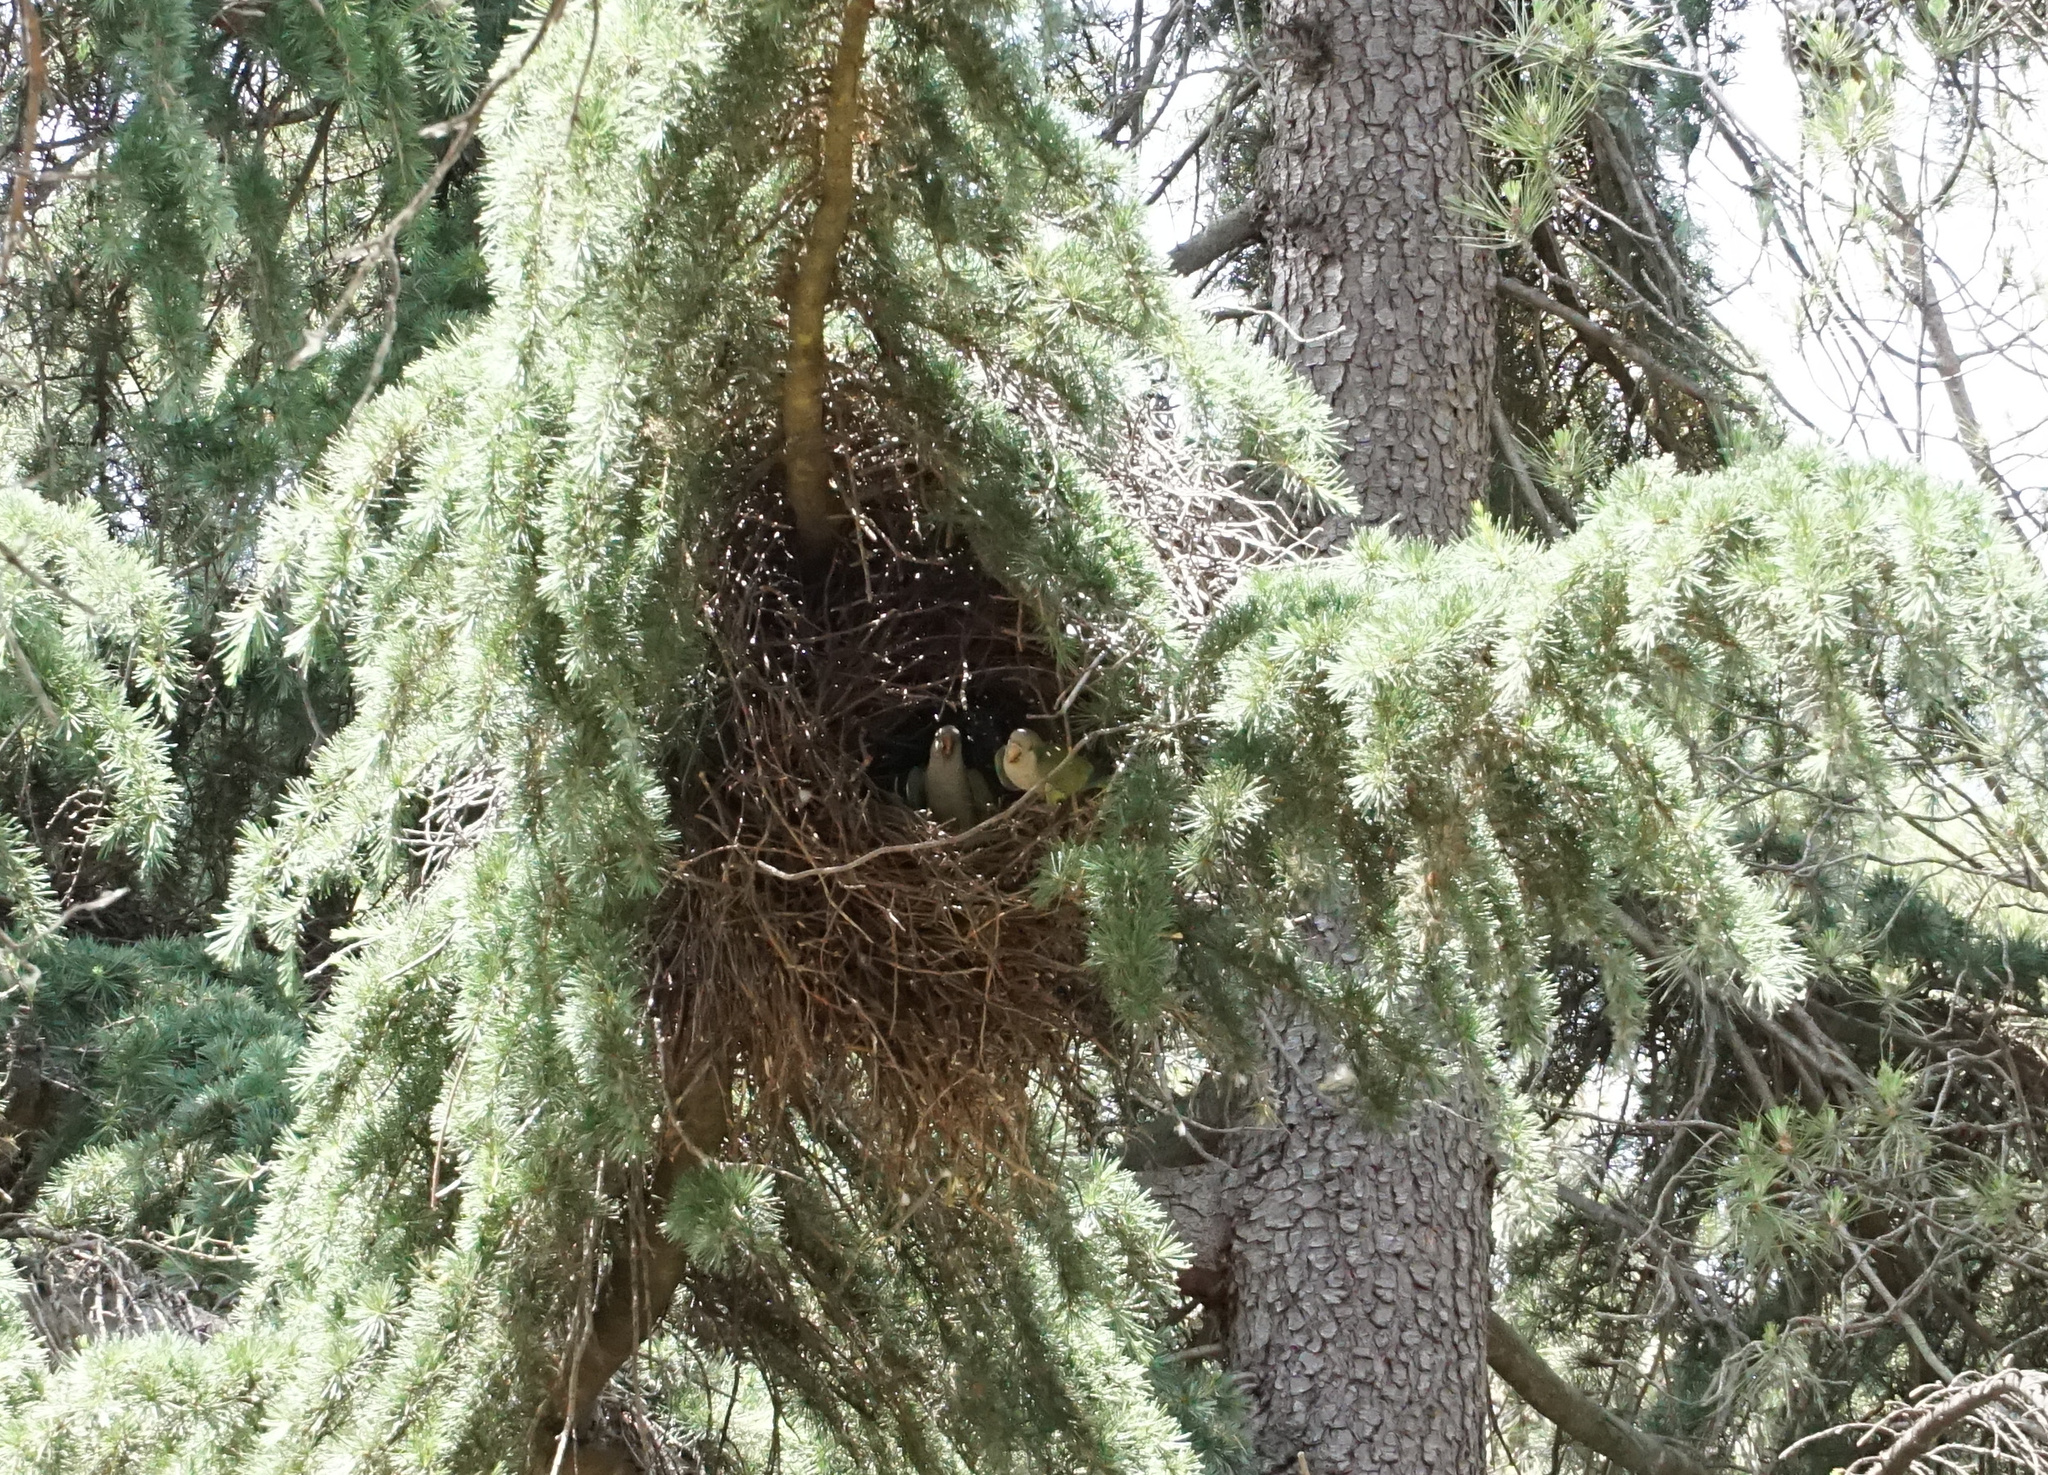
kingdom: Animalia
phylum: Chordata
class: Aves
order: Psittaciformes
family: Psittacidae
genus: Myiopsitta
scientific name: Myiopsitta monachus
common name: Monk parakeet
